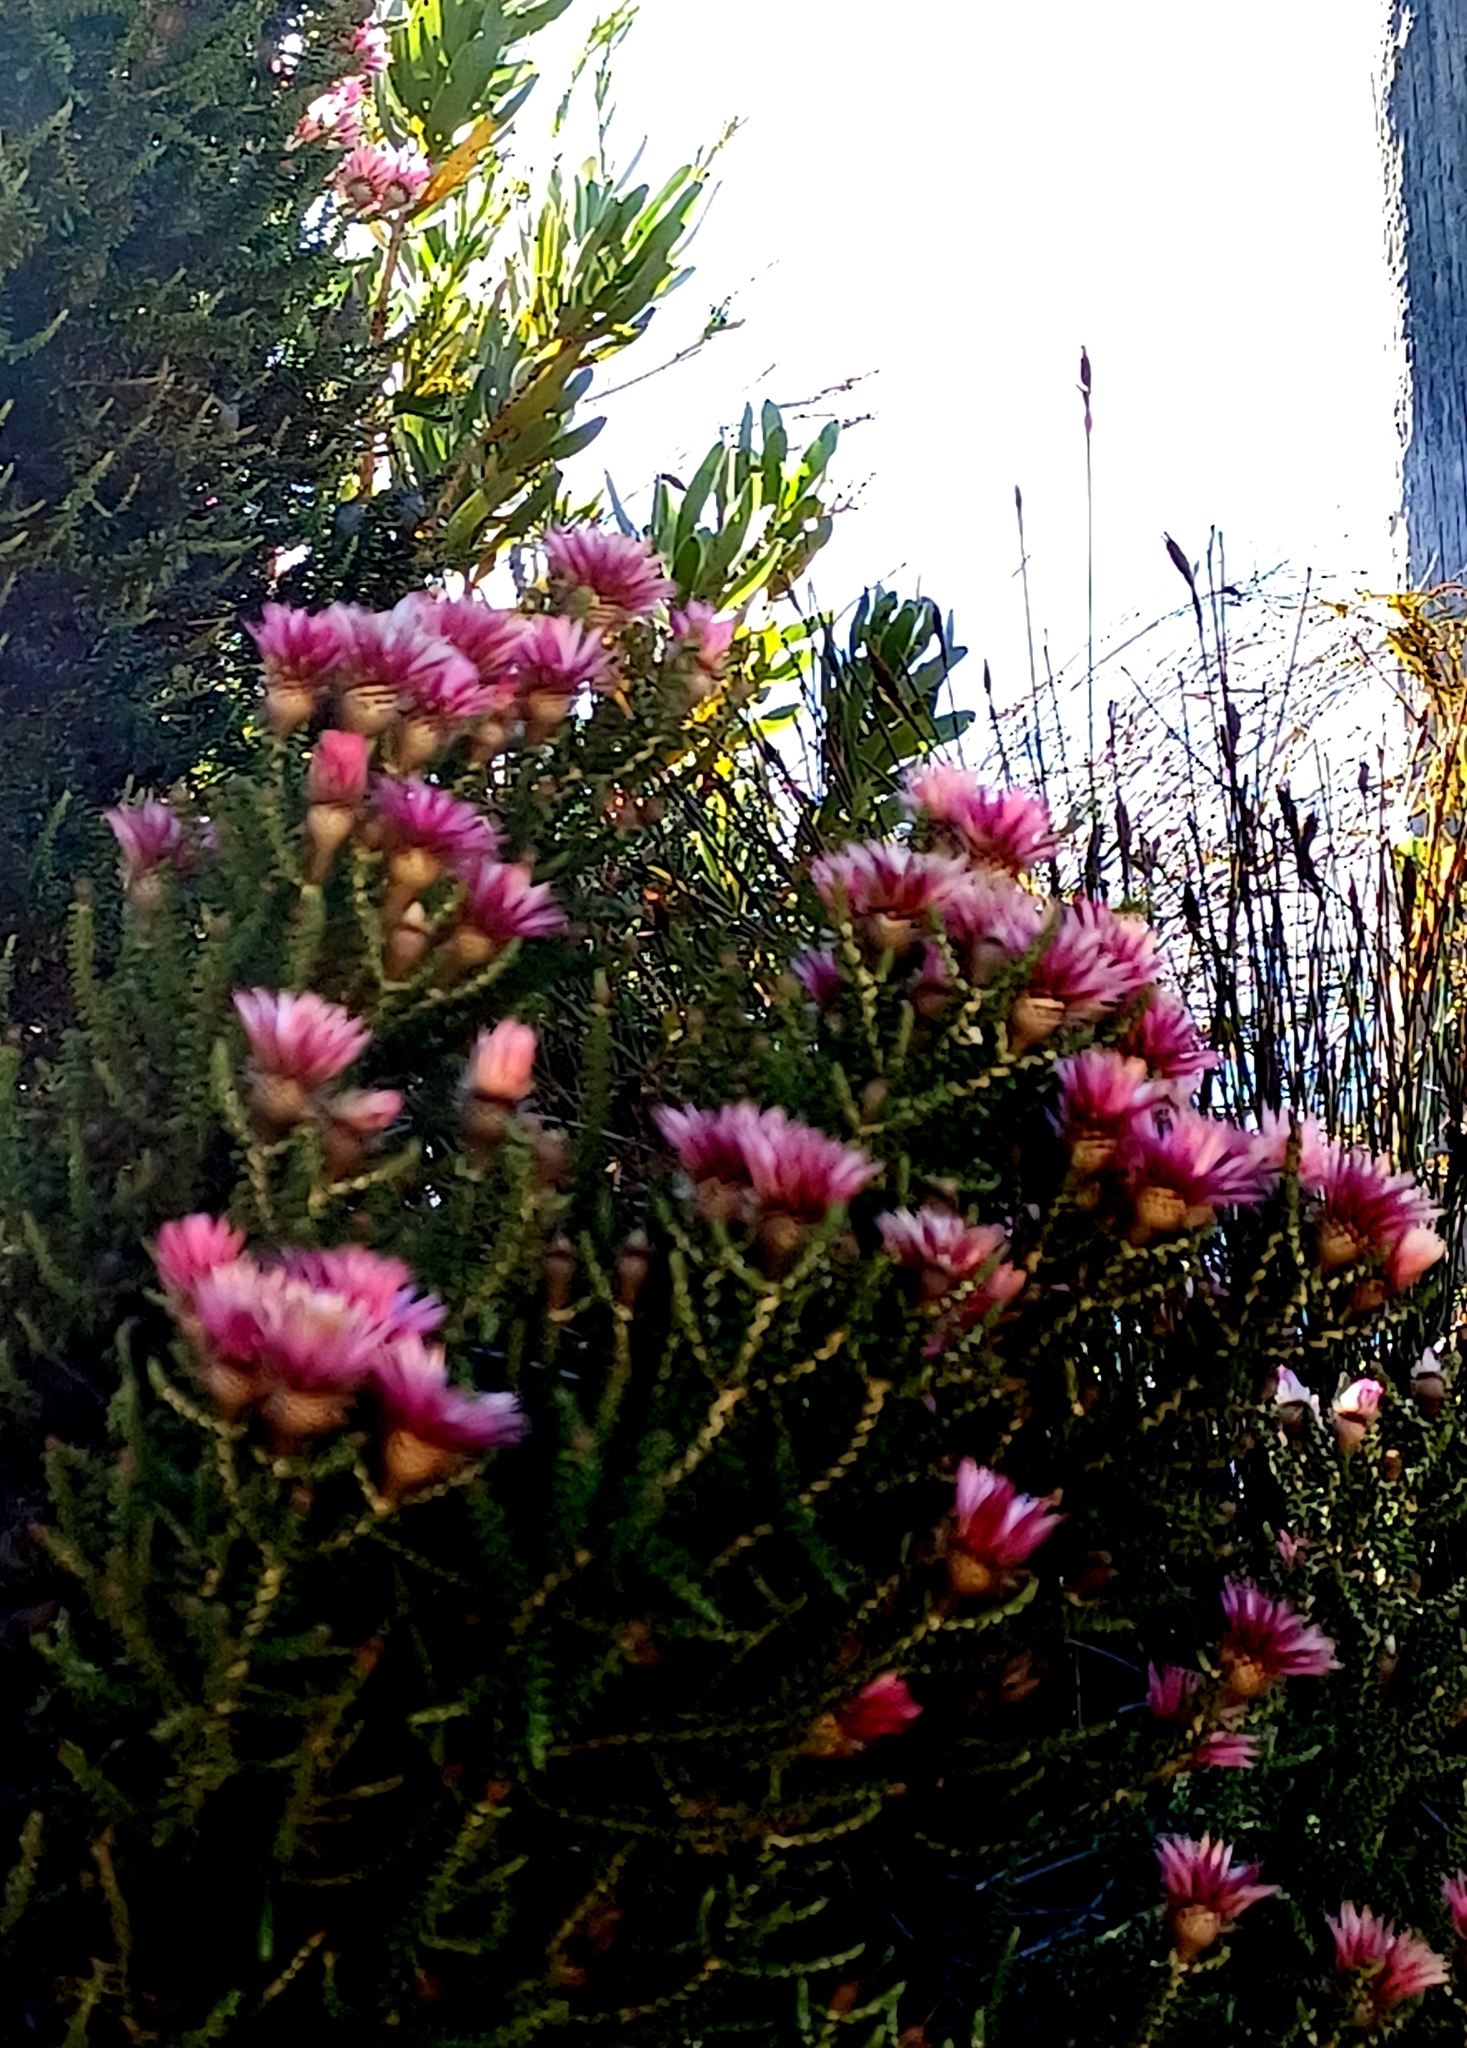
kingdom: Plantae
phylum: Tracheophyta
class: Magnoliopsida
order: Asterales
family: Asteraceae
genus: Phaenocoma
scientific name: Phaenocoma prolifera
